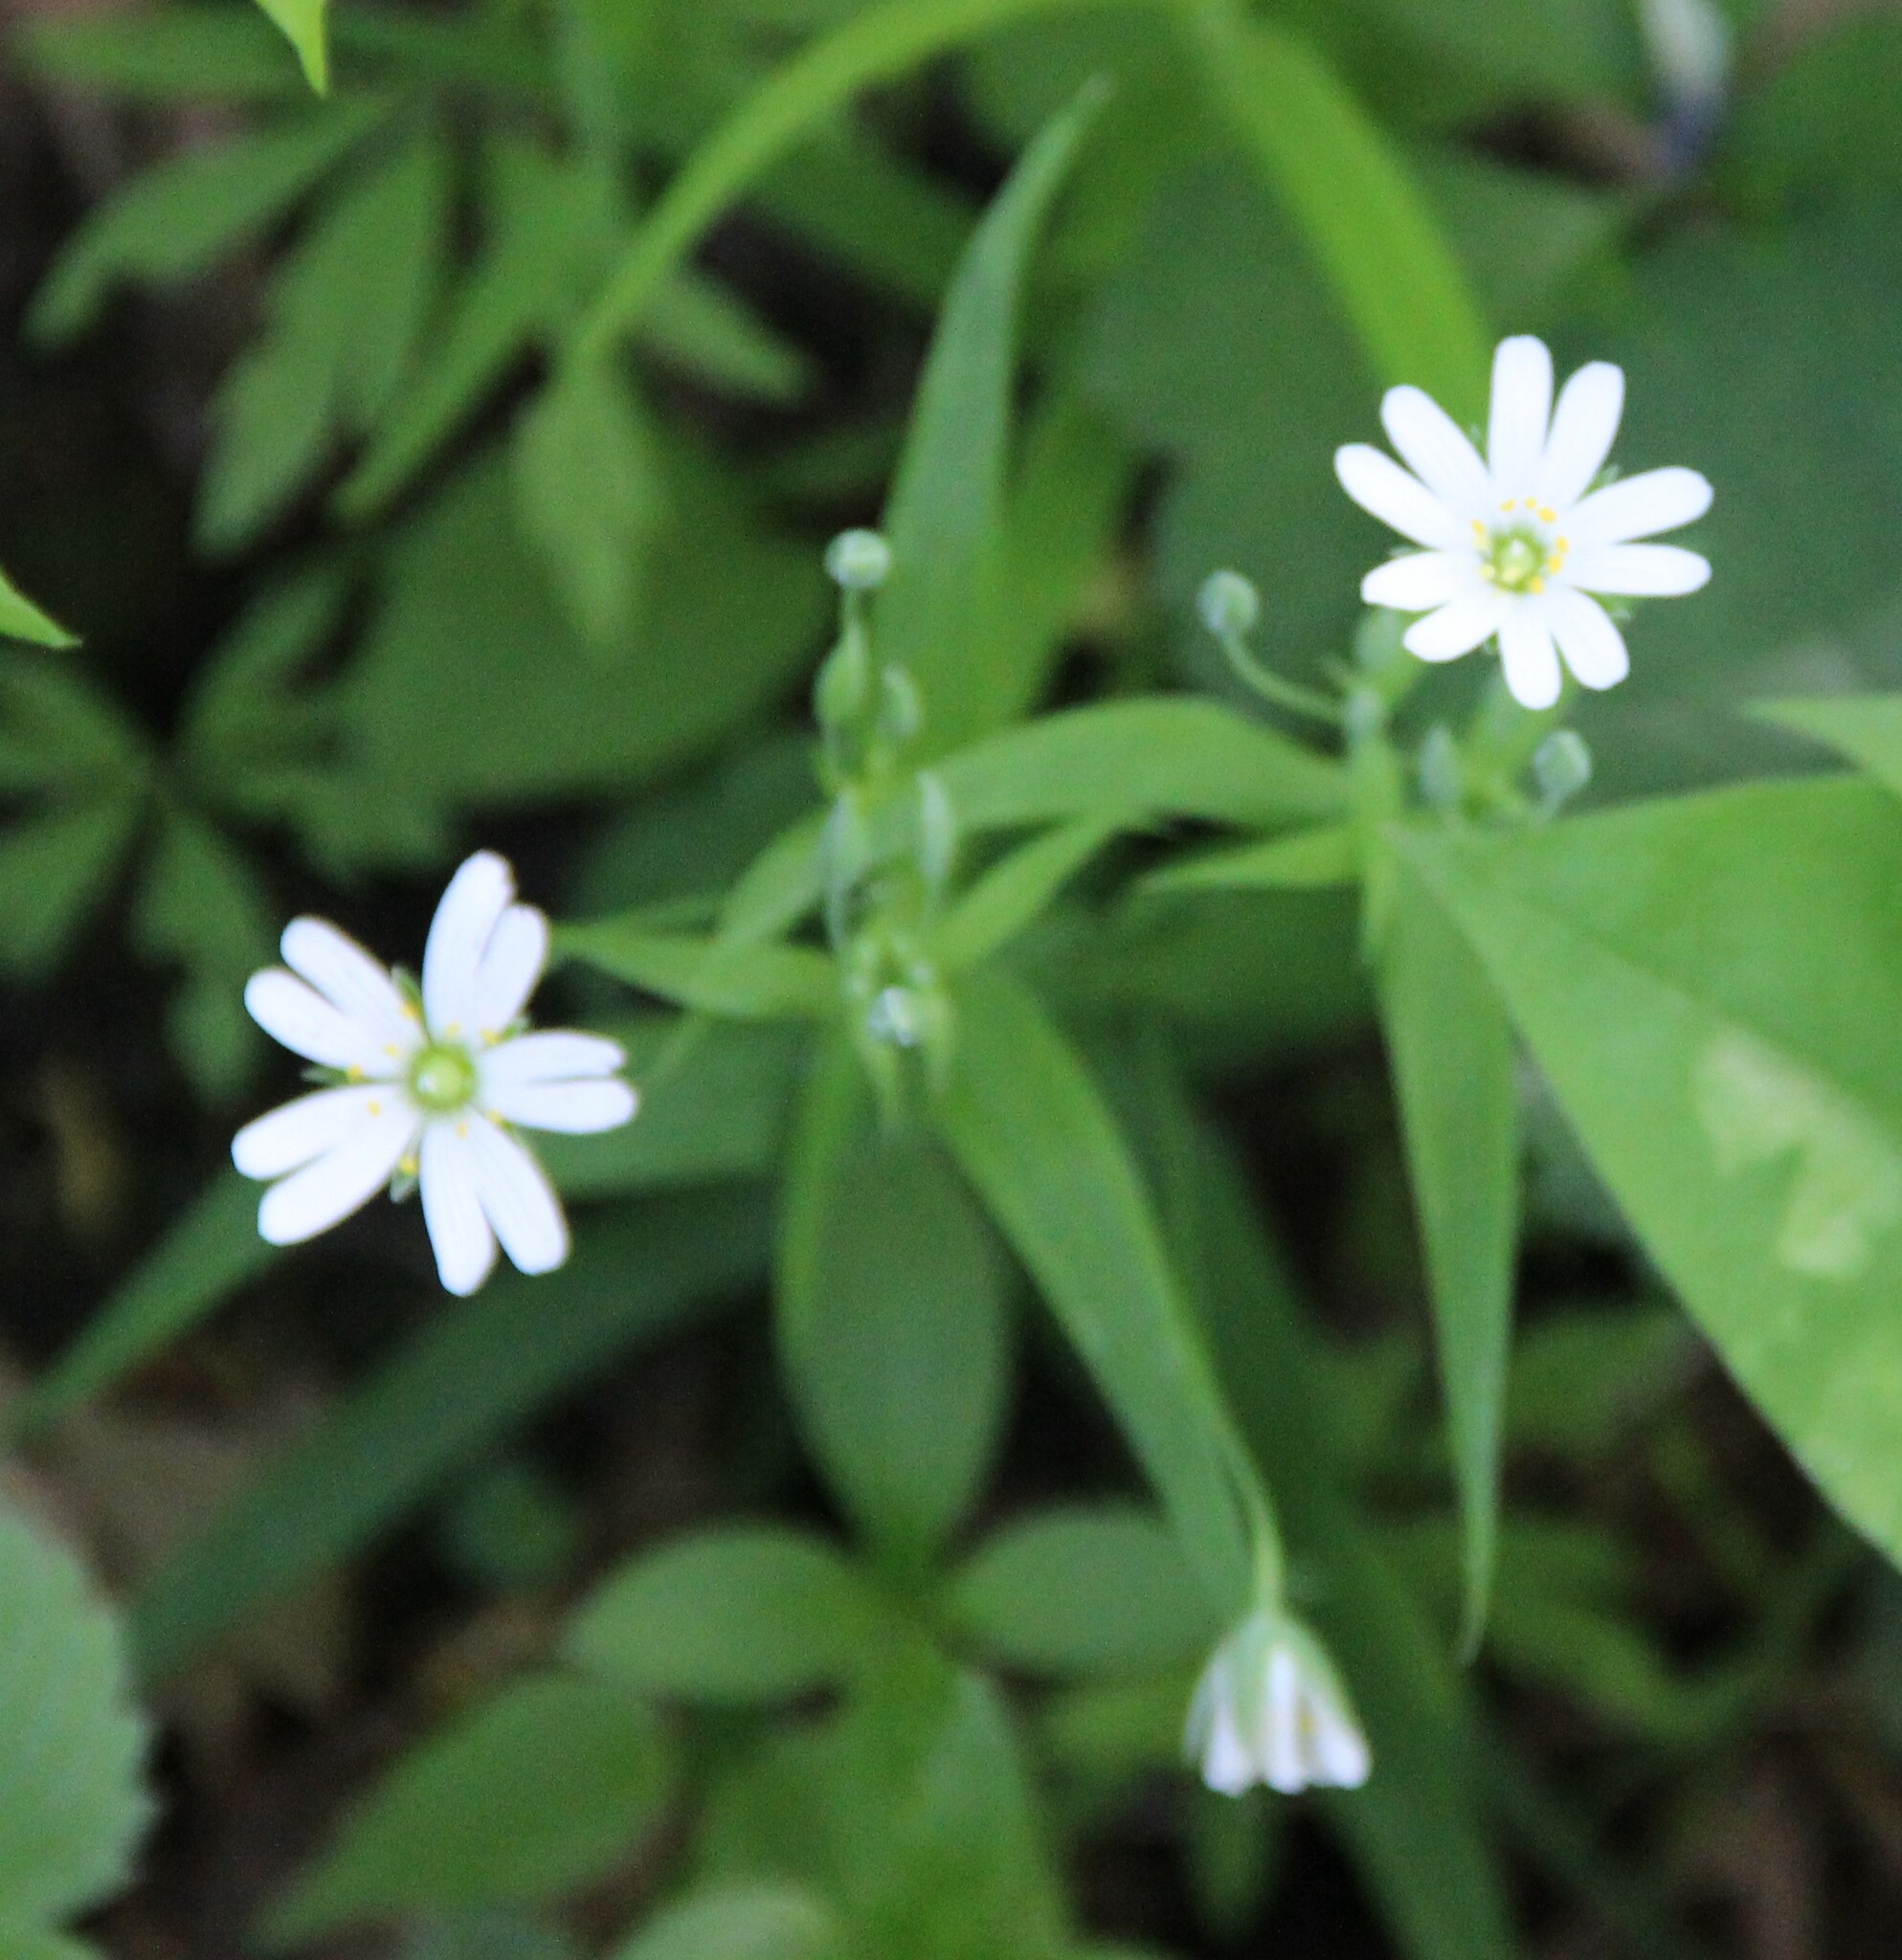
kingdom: Plantae
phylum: Tracheophyta
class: Magnoliopsida
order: Caryophyllales
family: Caryophyllaceae
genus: Rabelera
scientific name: Rabelera holostea
